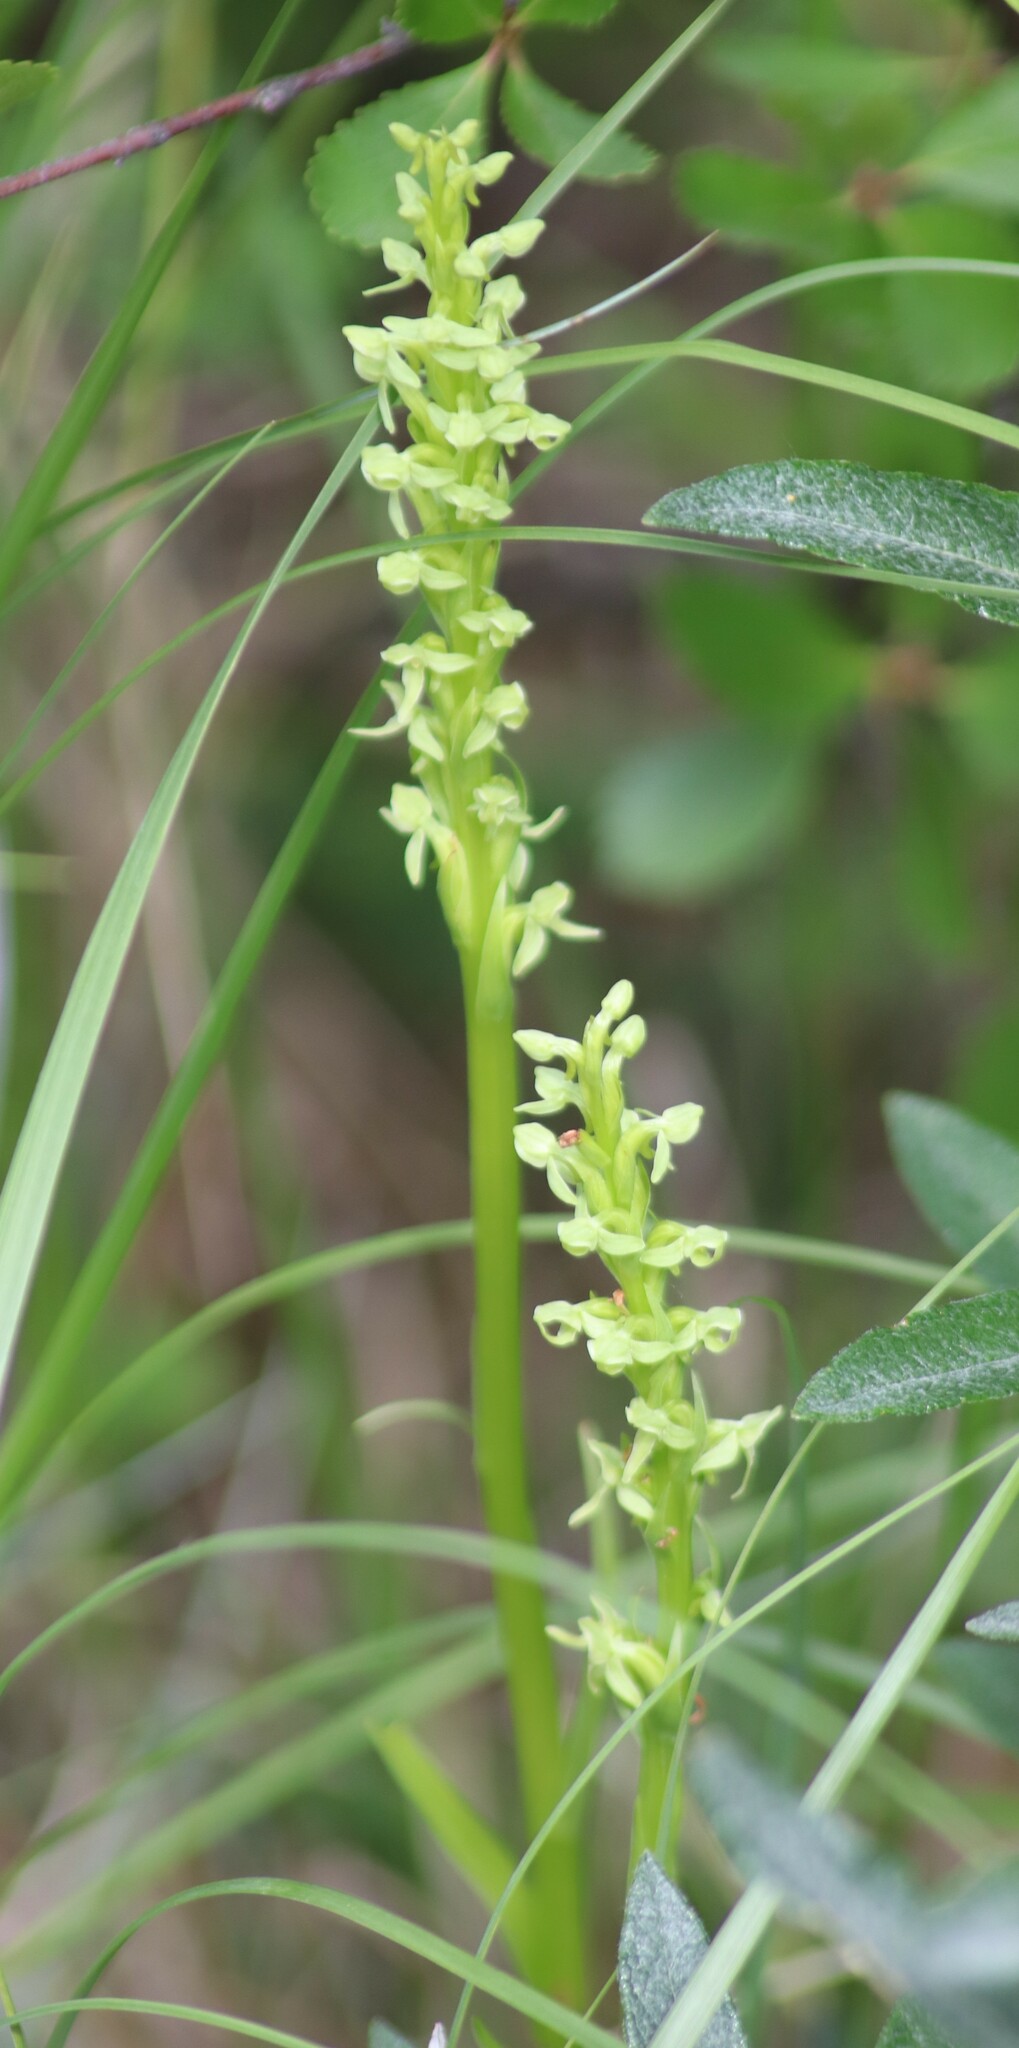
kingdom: Plantae
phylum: Tracheophyta
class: Liliopsida
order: Asparagales
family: Orchidaceae
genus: Platanthera
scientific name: Platanthera huronensis
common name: Fragrant green orchid
